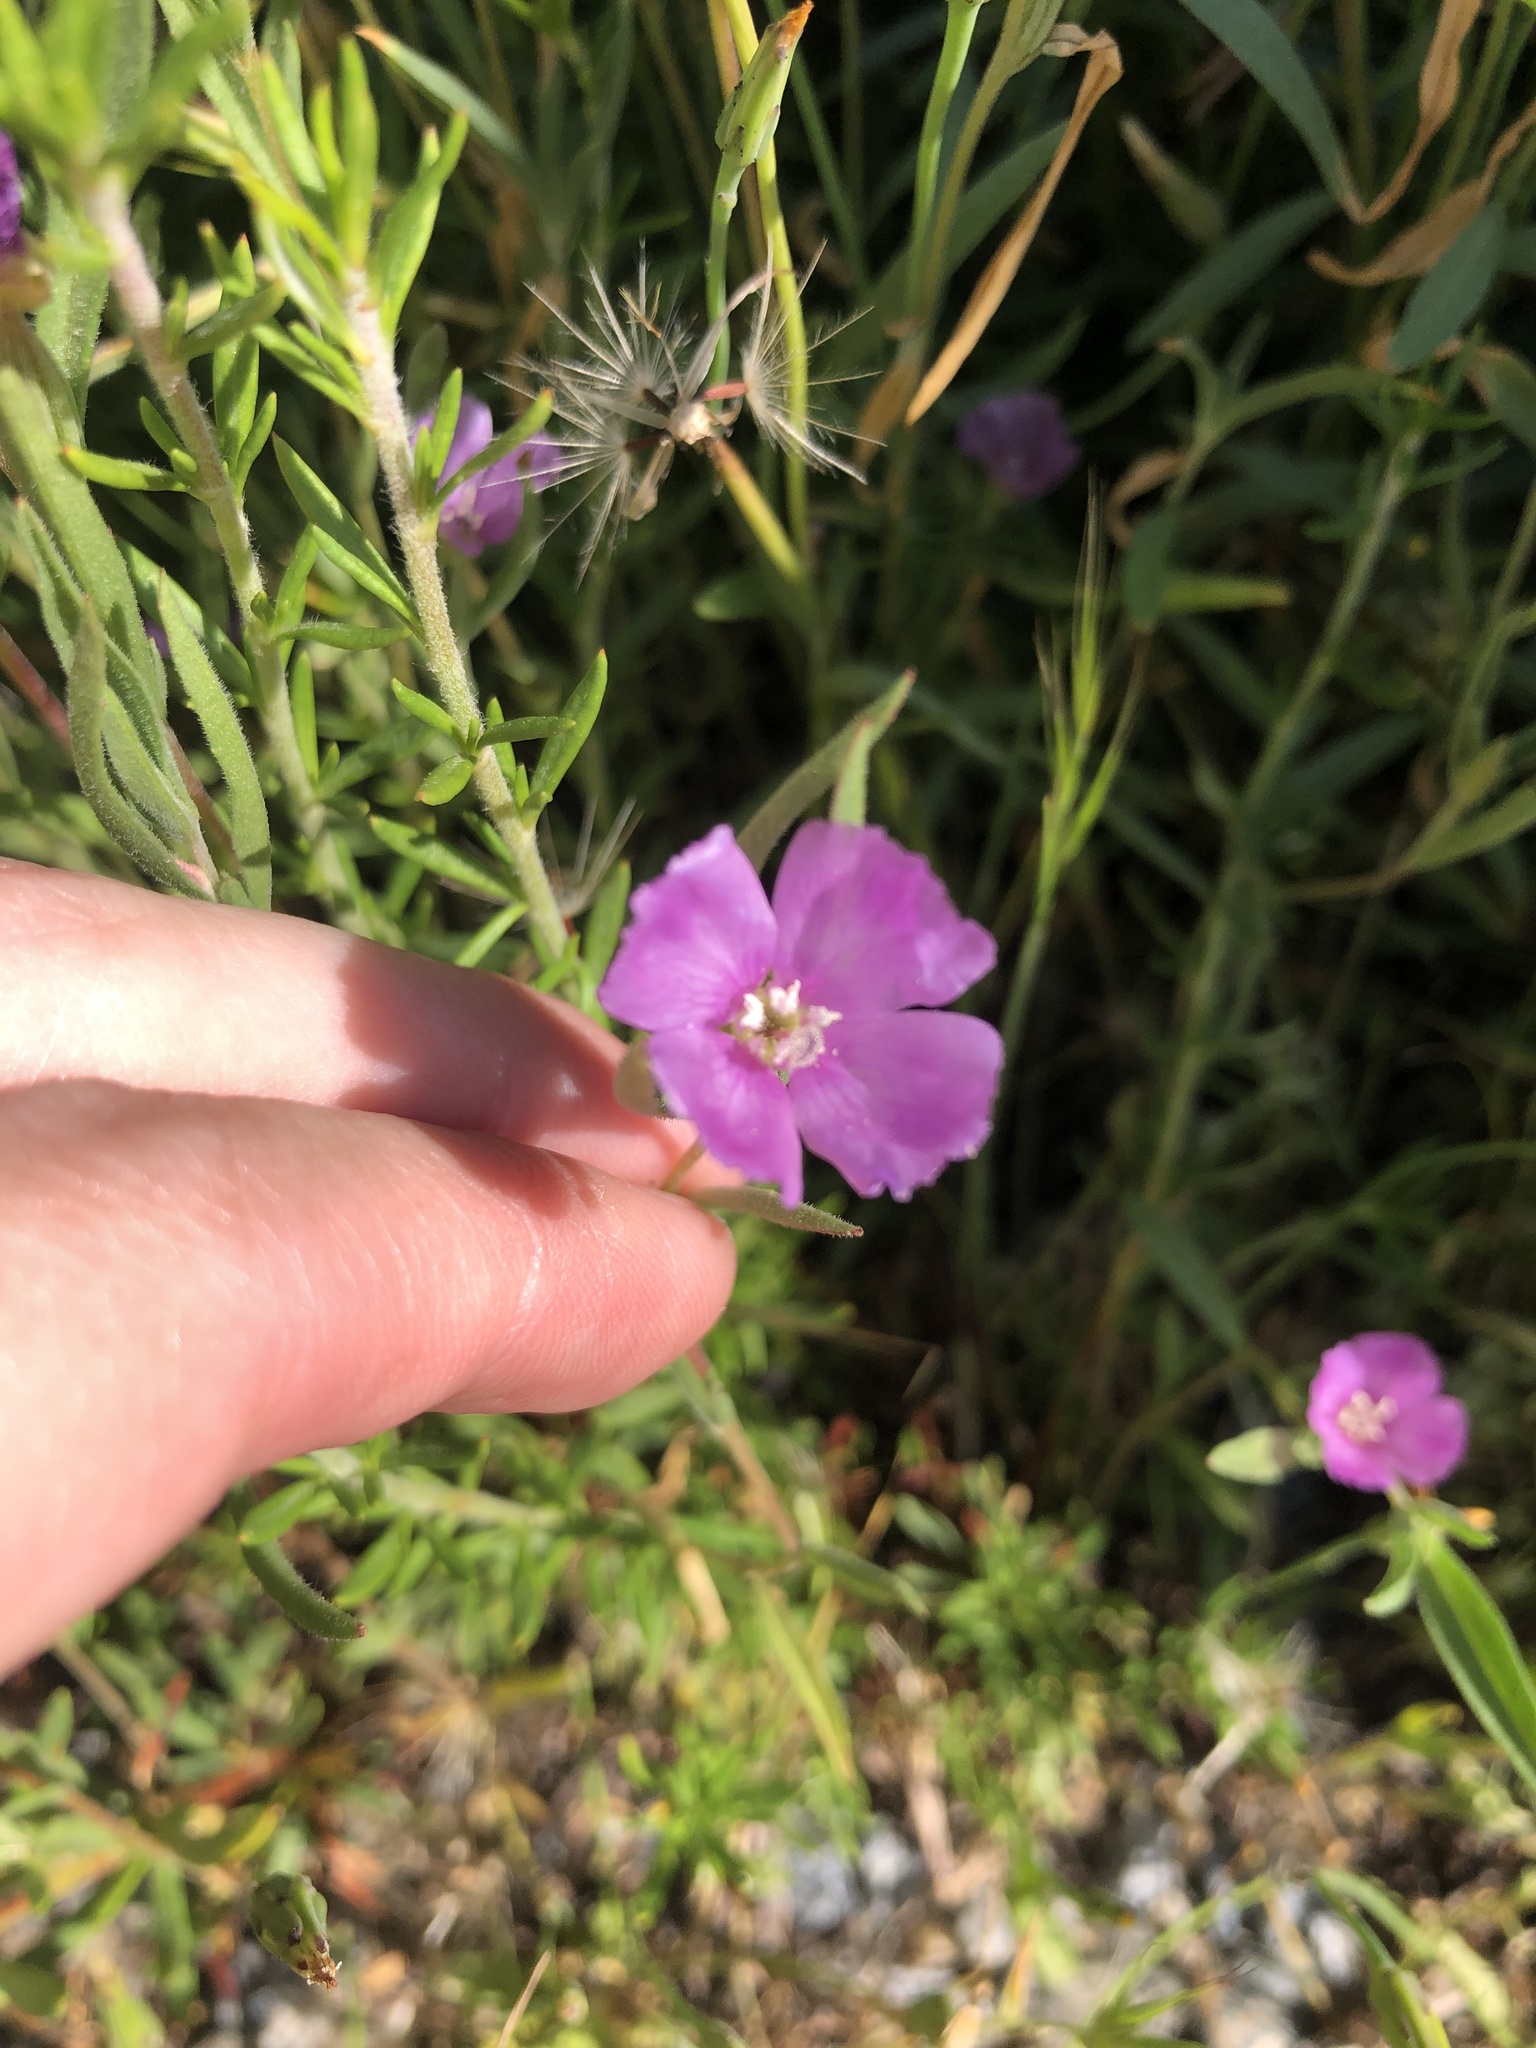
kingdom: Plantae
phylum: Tracheophyta
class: Magnoliopsida
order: Myrtales
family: Onagraceae
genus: Clarkia
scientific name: Clarkia purpurea
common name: Purple clarkia
